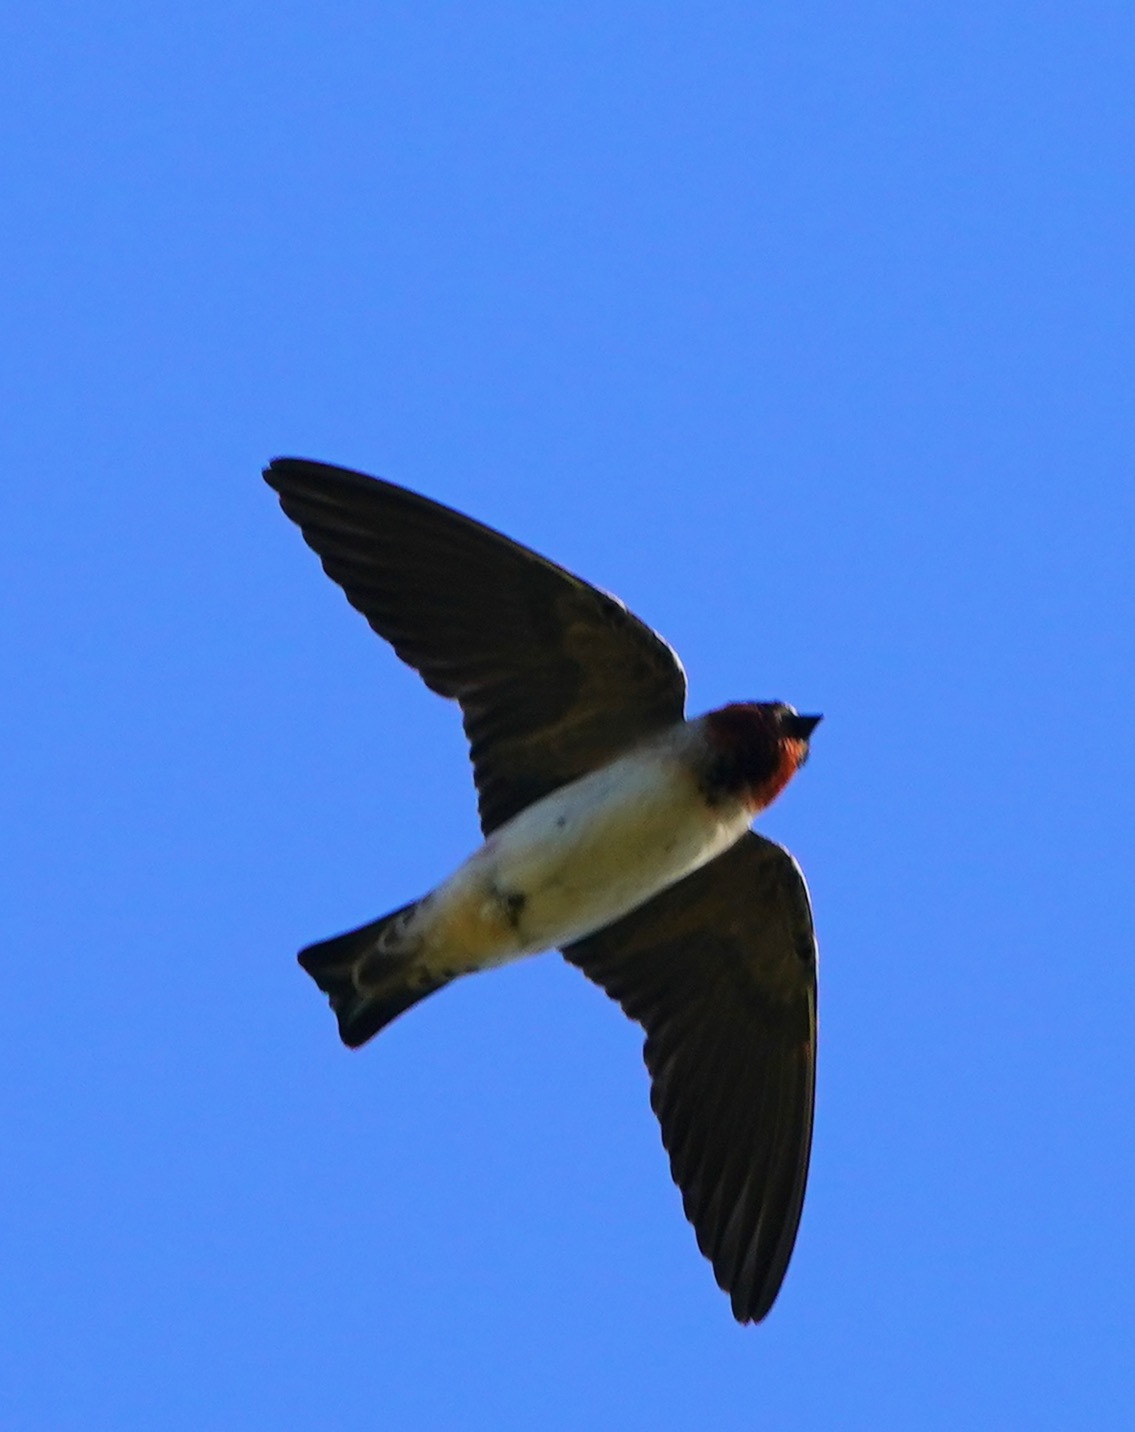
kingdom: Animalia
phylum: Chordata
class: Aves
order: Passeriformes
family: Hirundinidae
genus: Petrochelidon
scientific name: Petrochelidon pyrrhonota
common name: American cliff swallow
